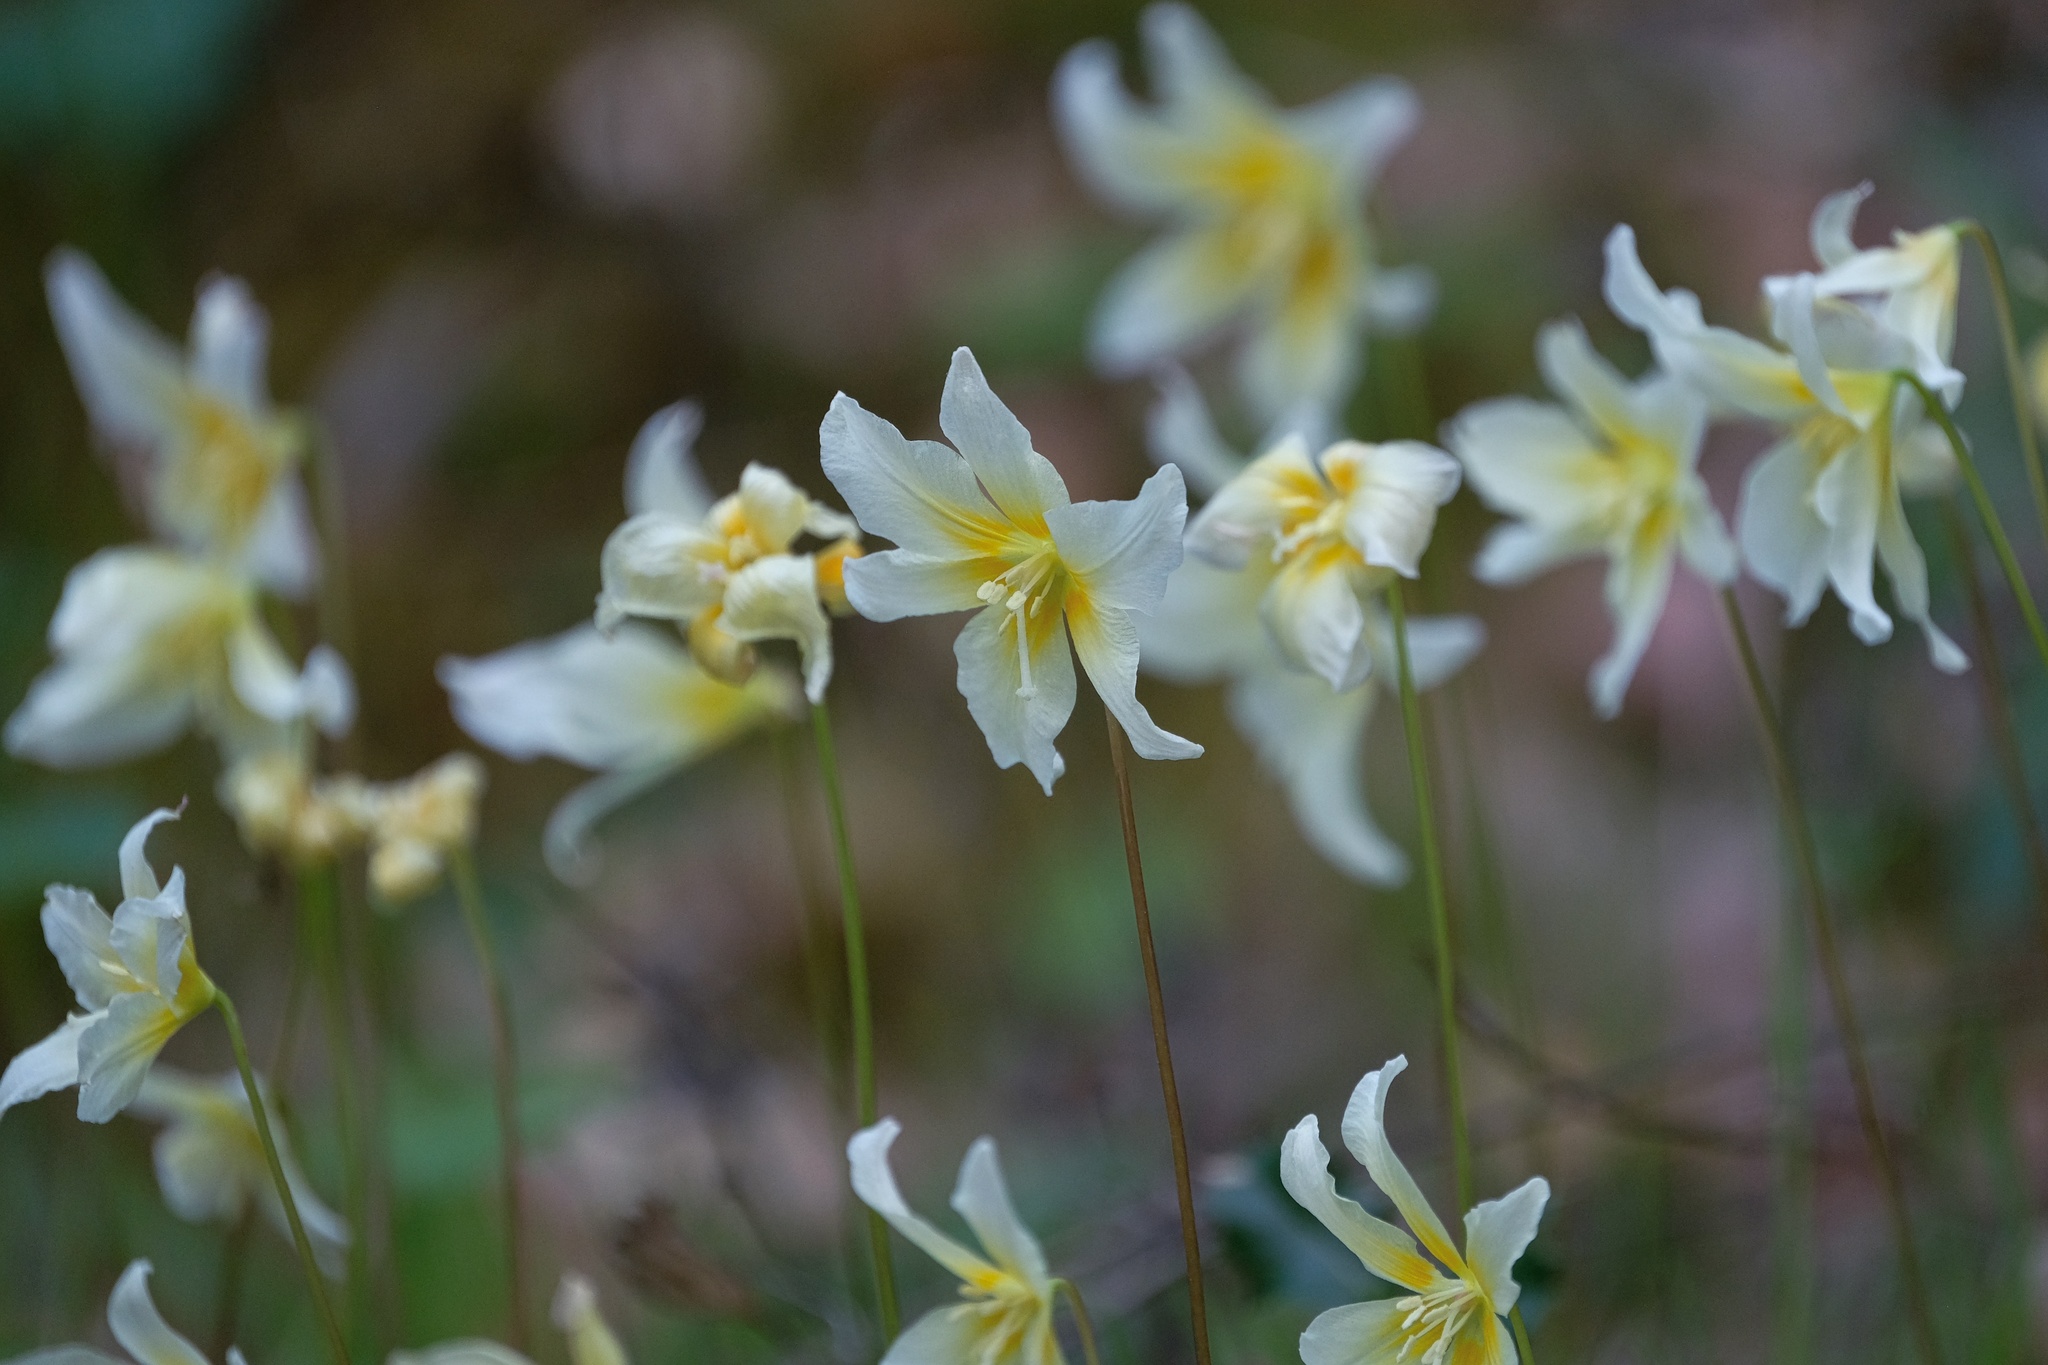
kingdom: Plantae
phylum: Tracheophyta
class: Liliopsida
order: Liliales
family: Liliaceae
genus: Erythronium
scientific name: Erythronium californicum
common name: Fawn-lily
